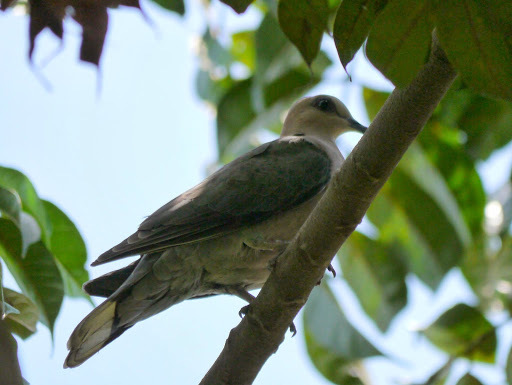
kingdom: Animalia
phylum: Chordata
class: Aves
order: Columbiformes
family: Columbidae
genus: Streptopelia
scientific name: Streptopelia semitorquata
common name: Red-eyed dove
